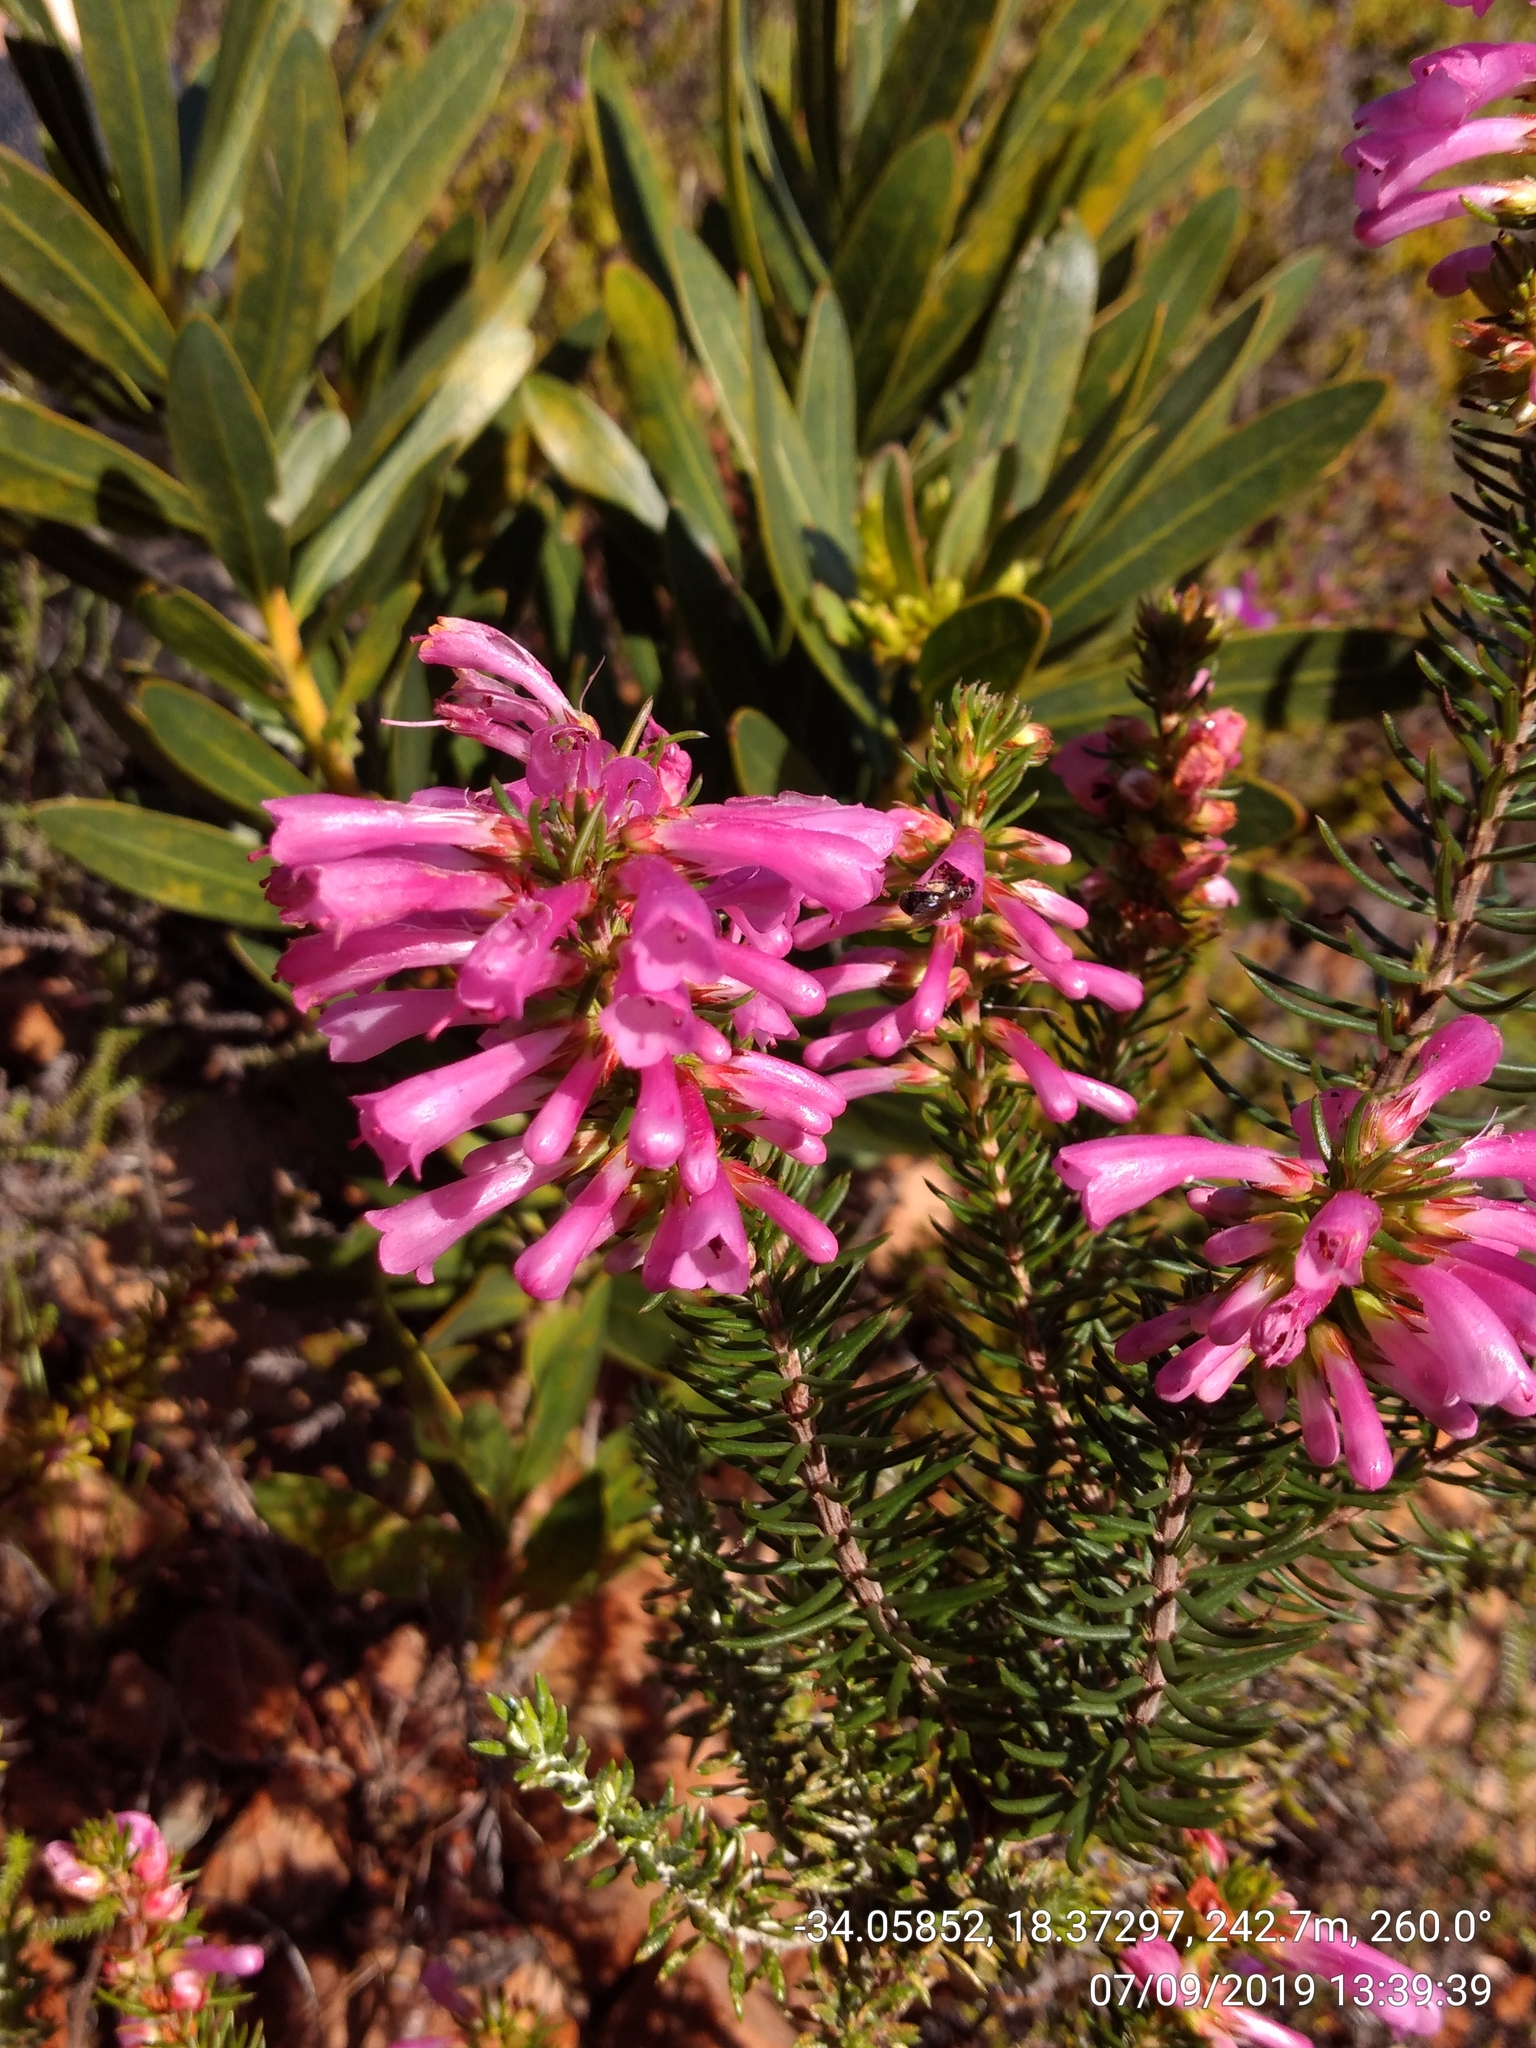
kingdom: Plantae
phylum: Tracheophyta
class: Magnoliopsida
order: Ericales
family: Ericaceae
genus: Erica
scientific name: Erica abietina
